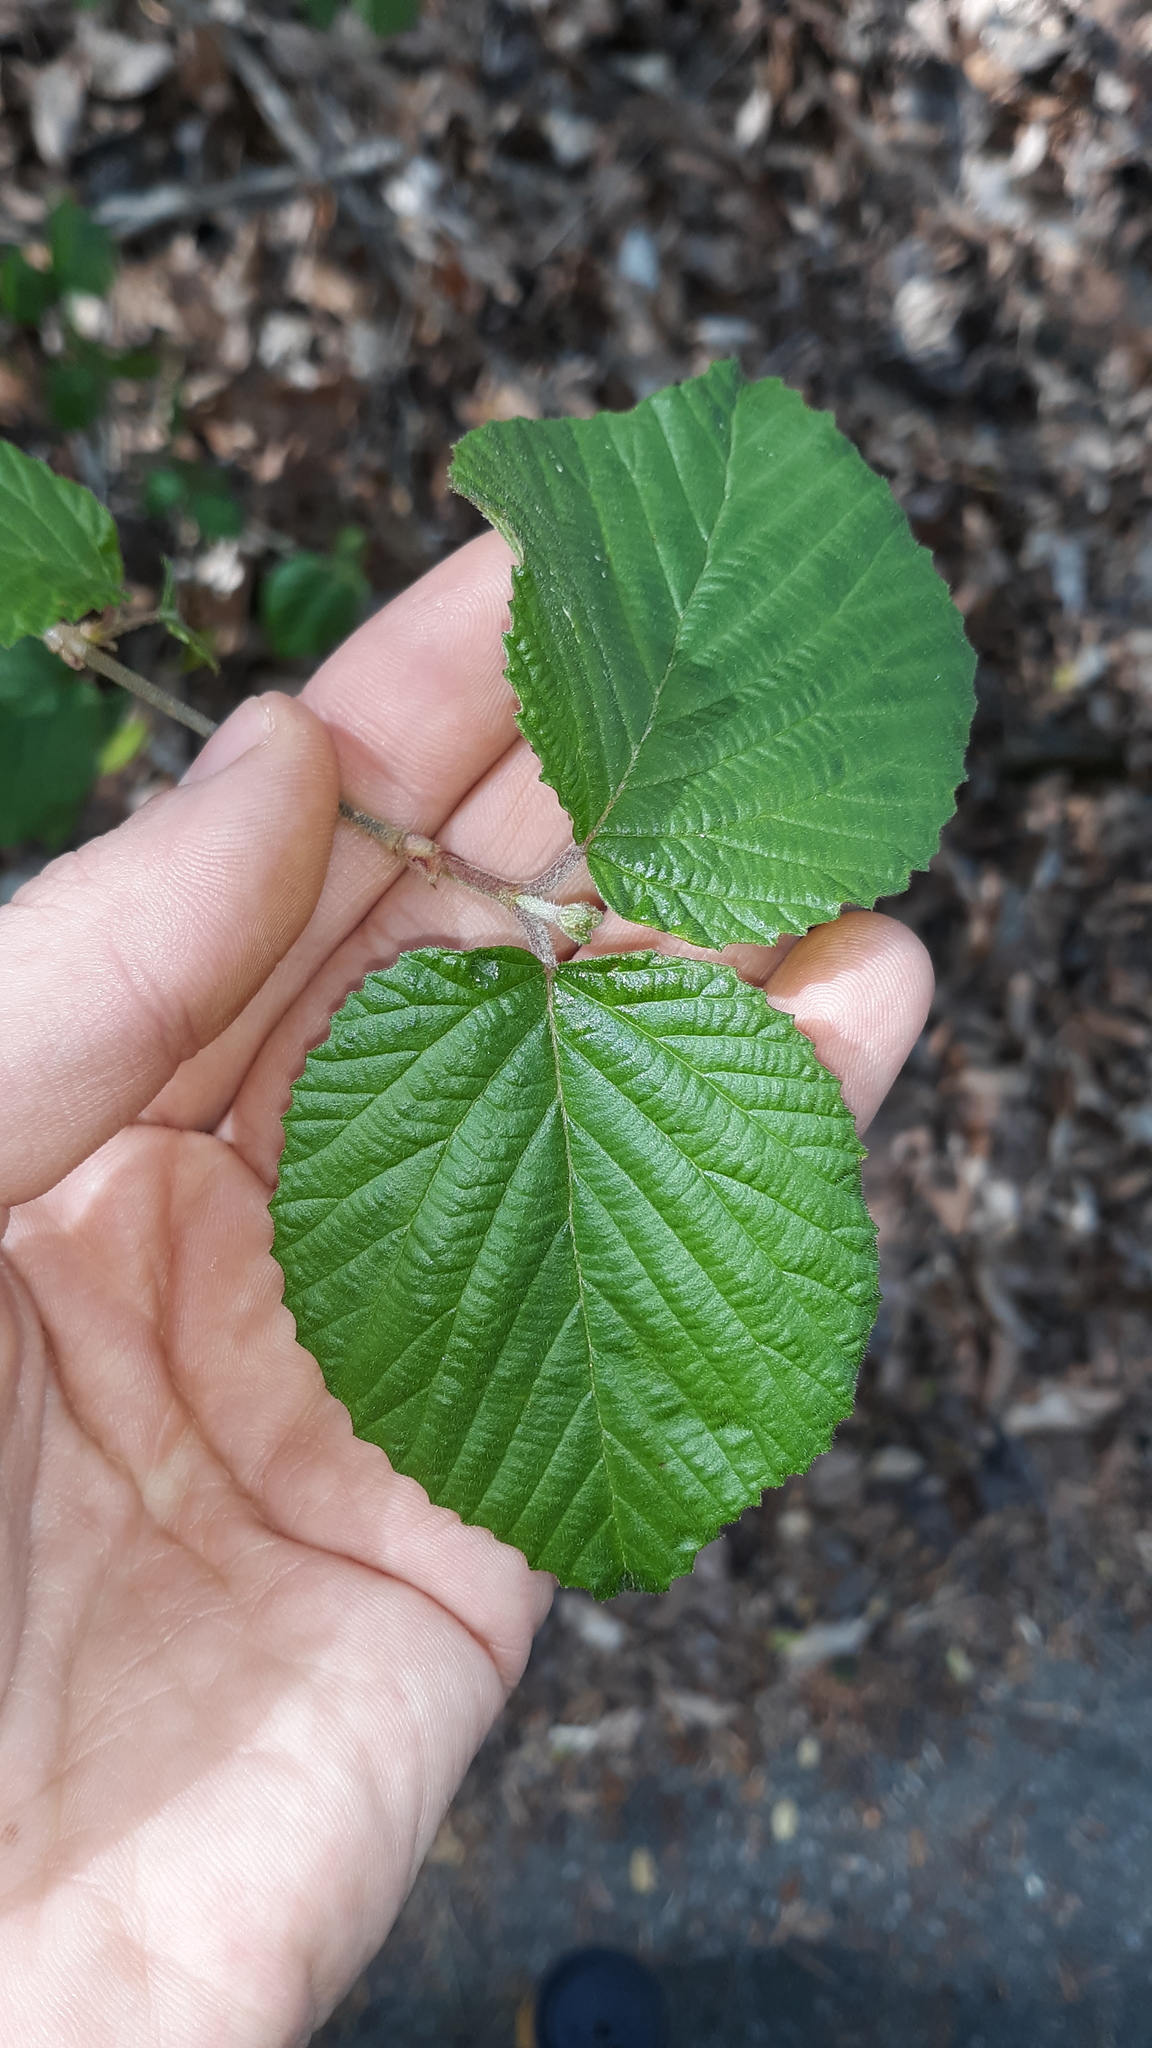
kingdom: Plantae
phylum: Tracheophyta
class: Magnoliopsida
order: Dipsacales
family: Viburnaceae
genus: Viburnum
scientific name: Viburnum dilatatum
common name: Linden arrowwood
